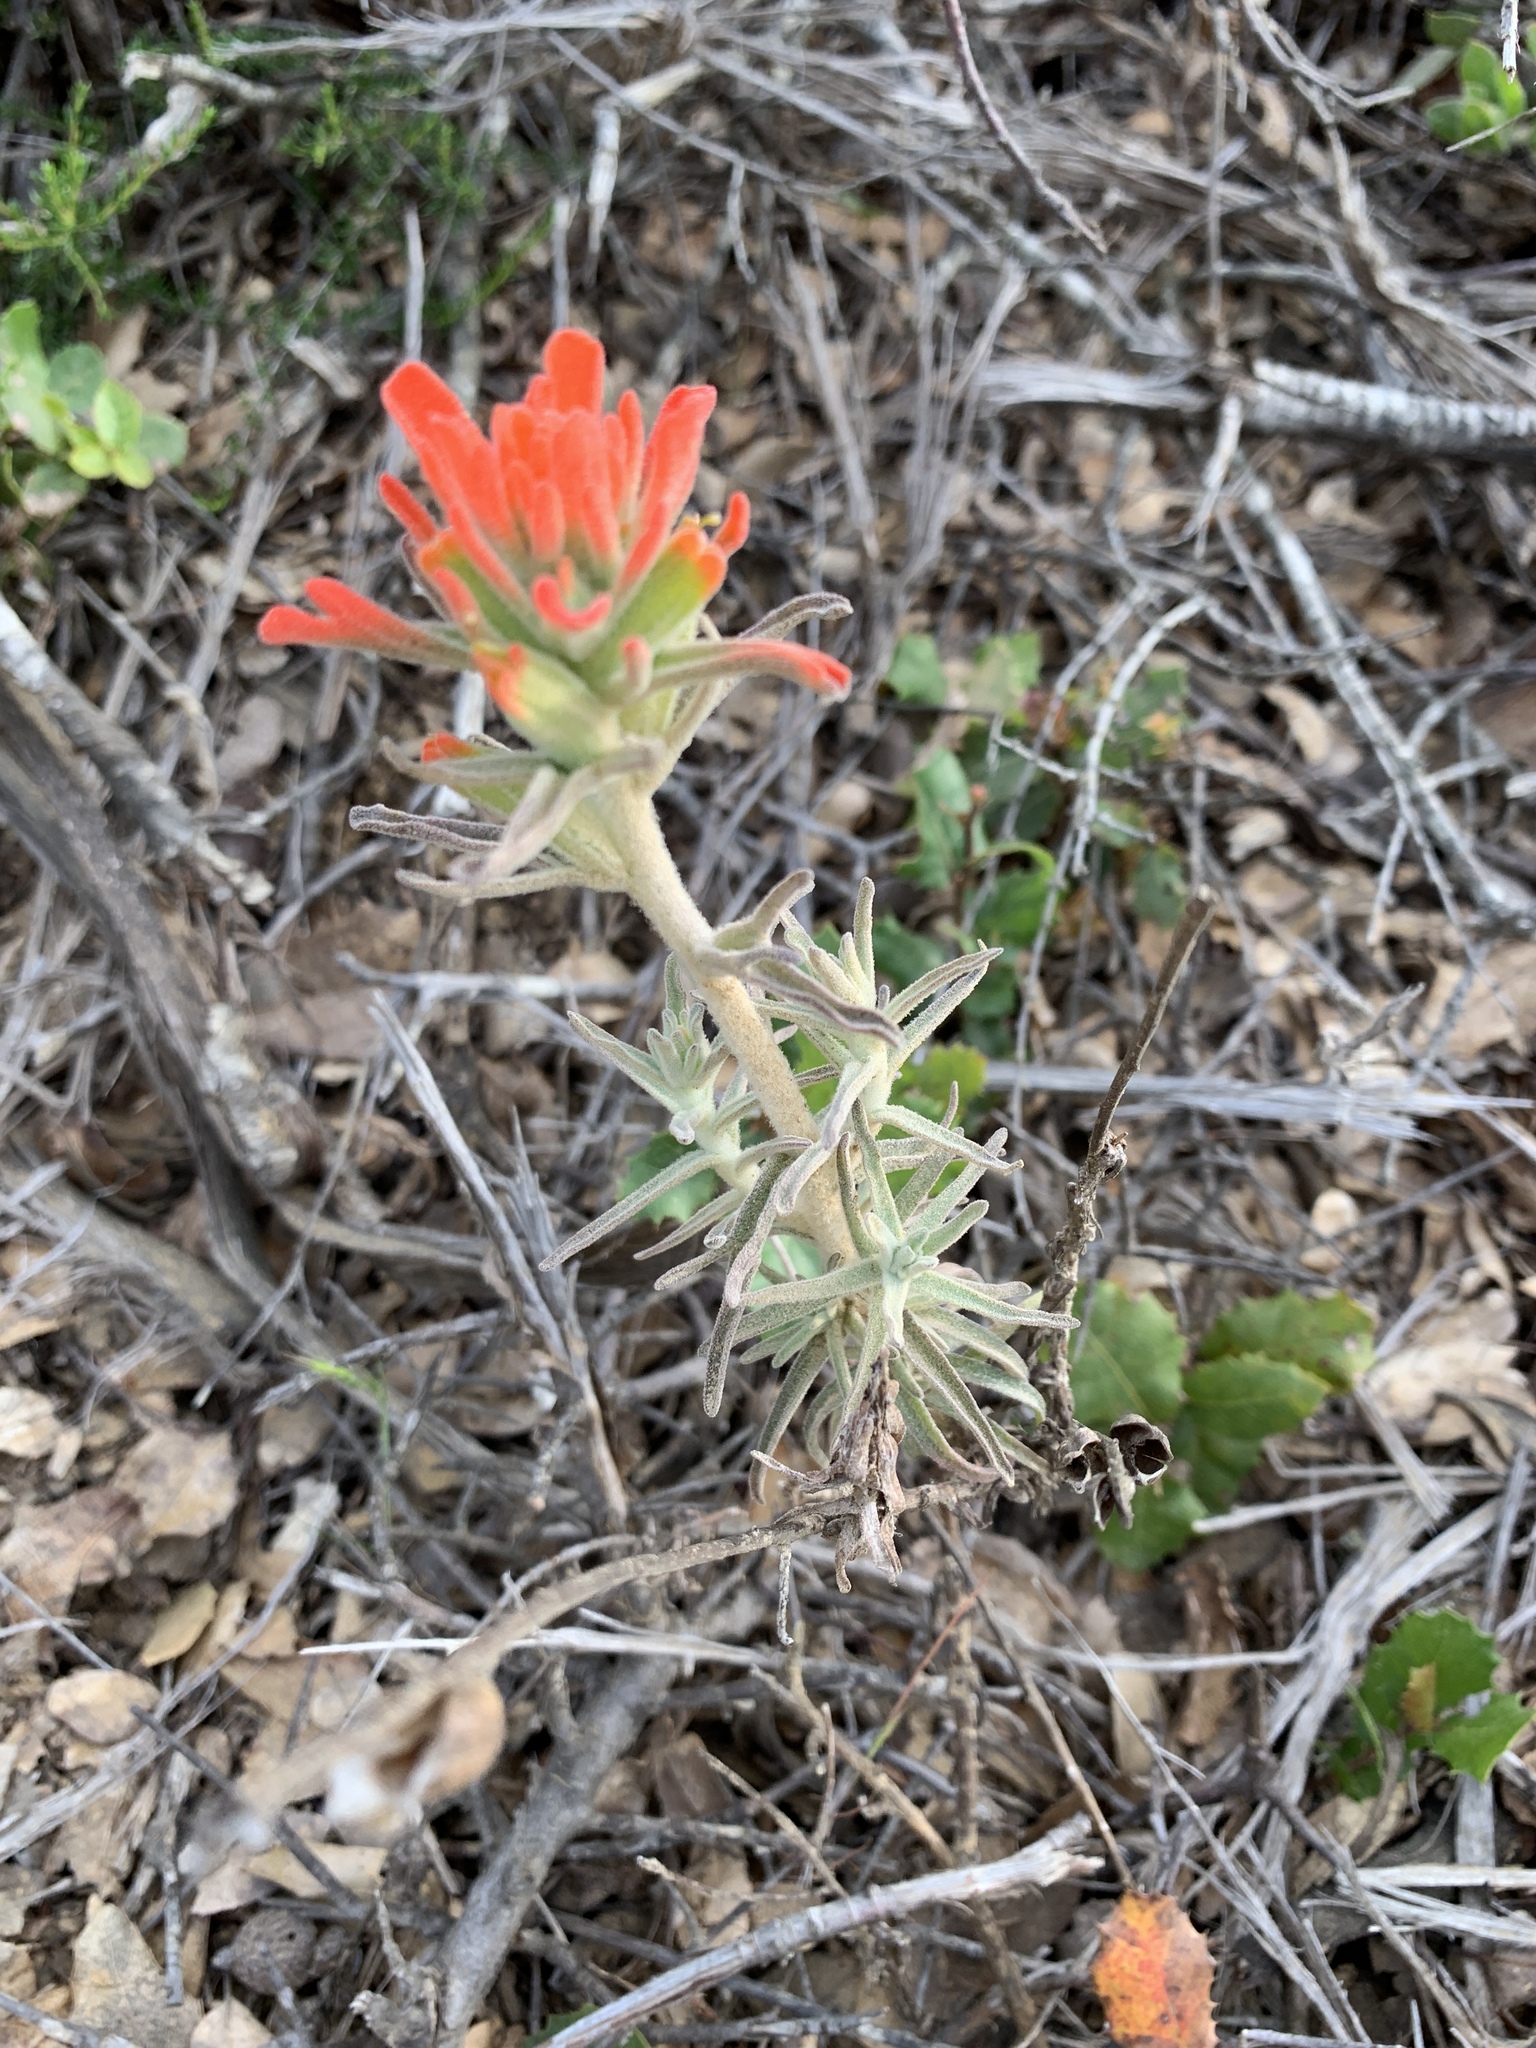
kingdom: Plantae
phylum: Tracheophyta
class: Magnoliopsida
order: Lamiales
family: Orobanchaceae
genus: Castilleja
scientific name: Castilleja foliolosa
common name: Woolly indian paintbrush
